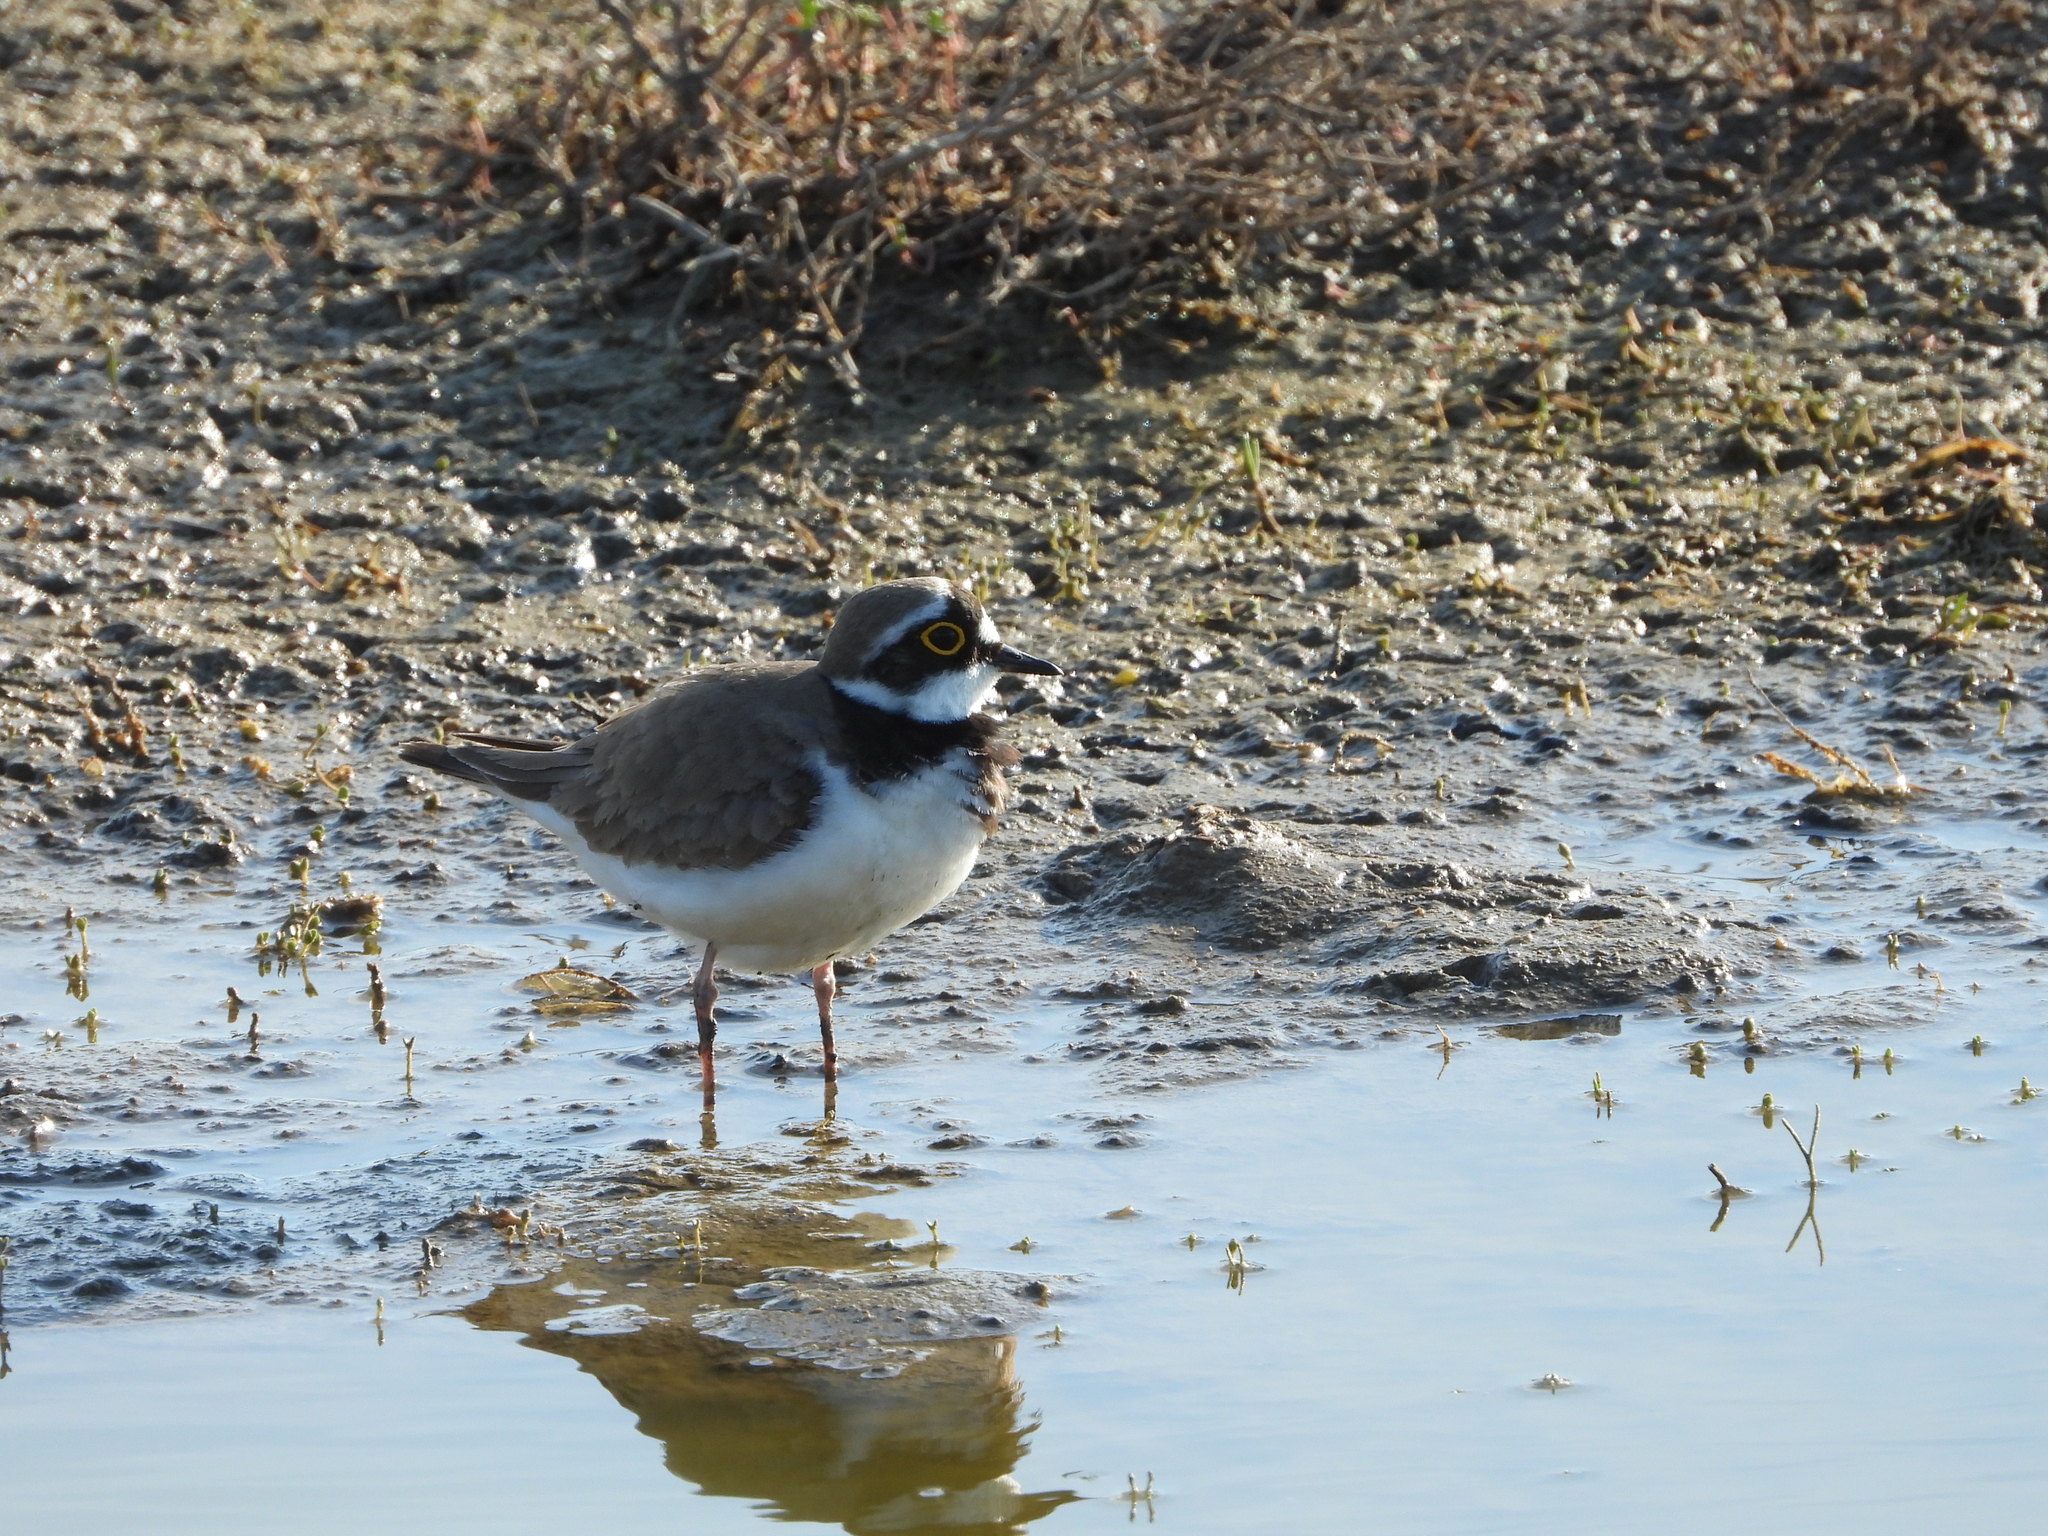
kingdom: Animalia
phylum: Chordata
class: Aves
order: Charadriiformes
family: Charadriidae
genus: Charadrius
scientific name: Charadrius dubius
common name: Little ringed plover
